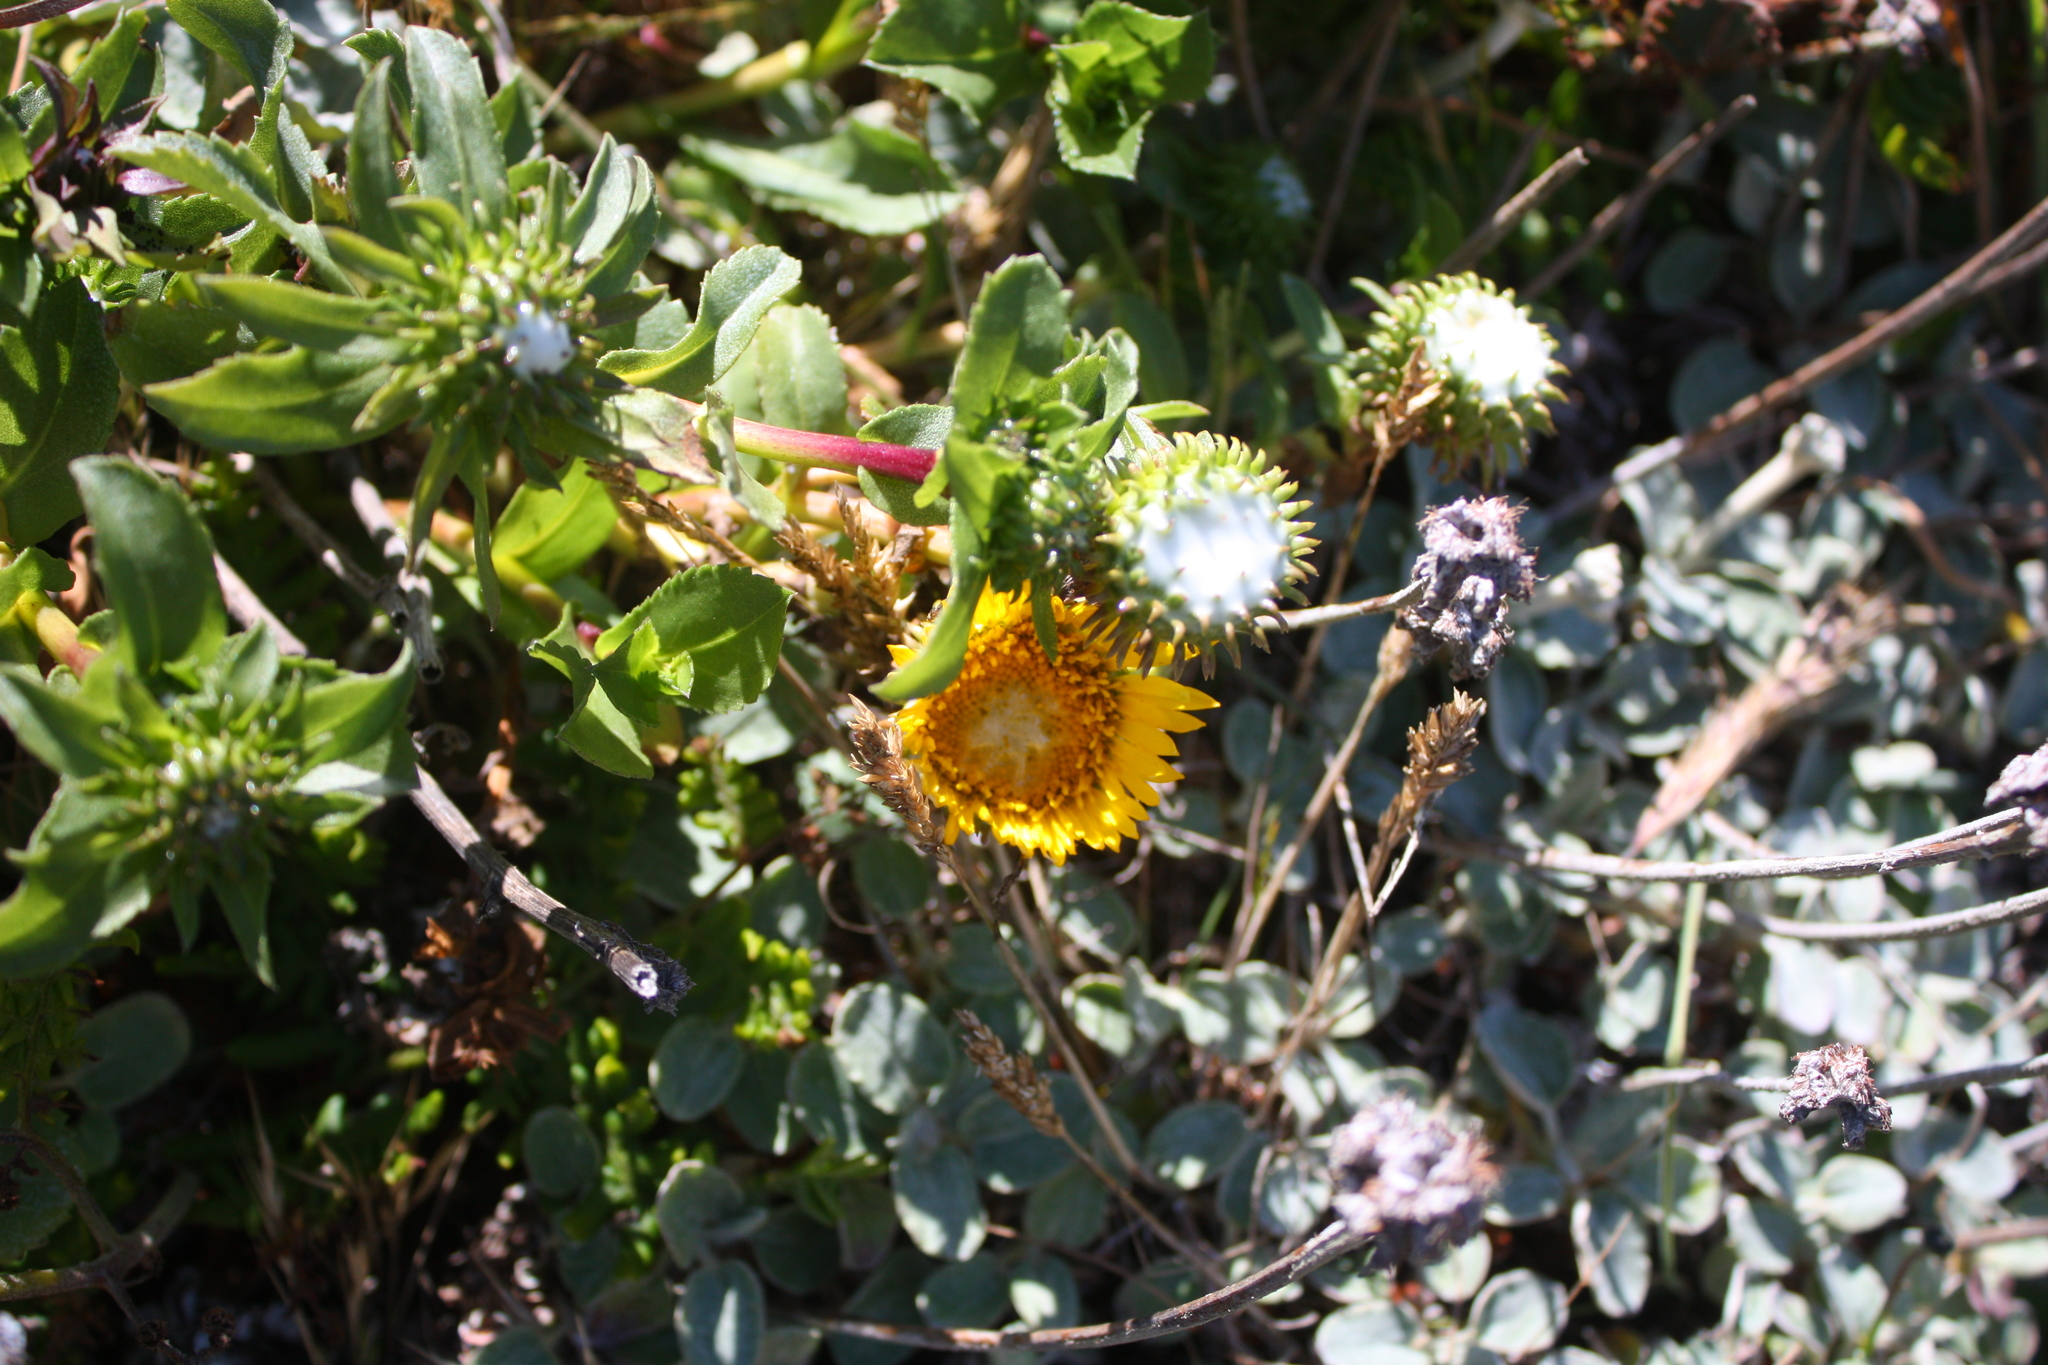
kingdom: Plantae
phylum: Tracheophyta
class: Magnoliopsida
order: Asterales
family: Asteraceae
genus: Grindelia
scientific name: Grindelia hirsutula
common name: Hairy gumweed
